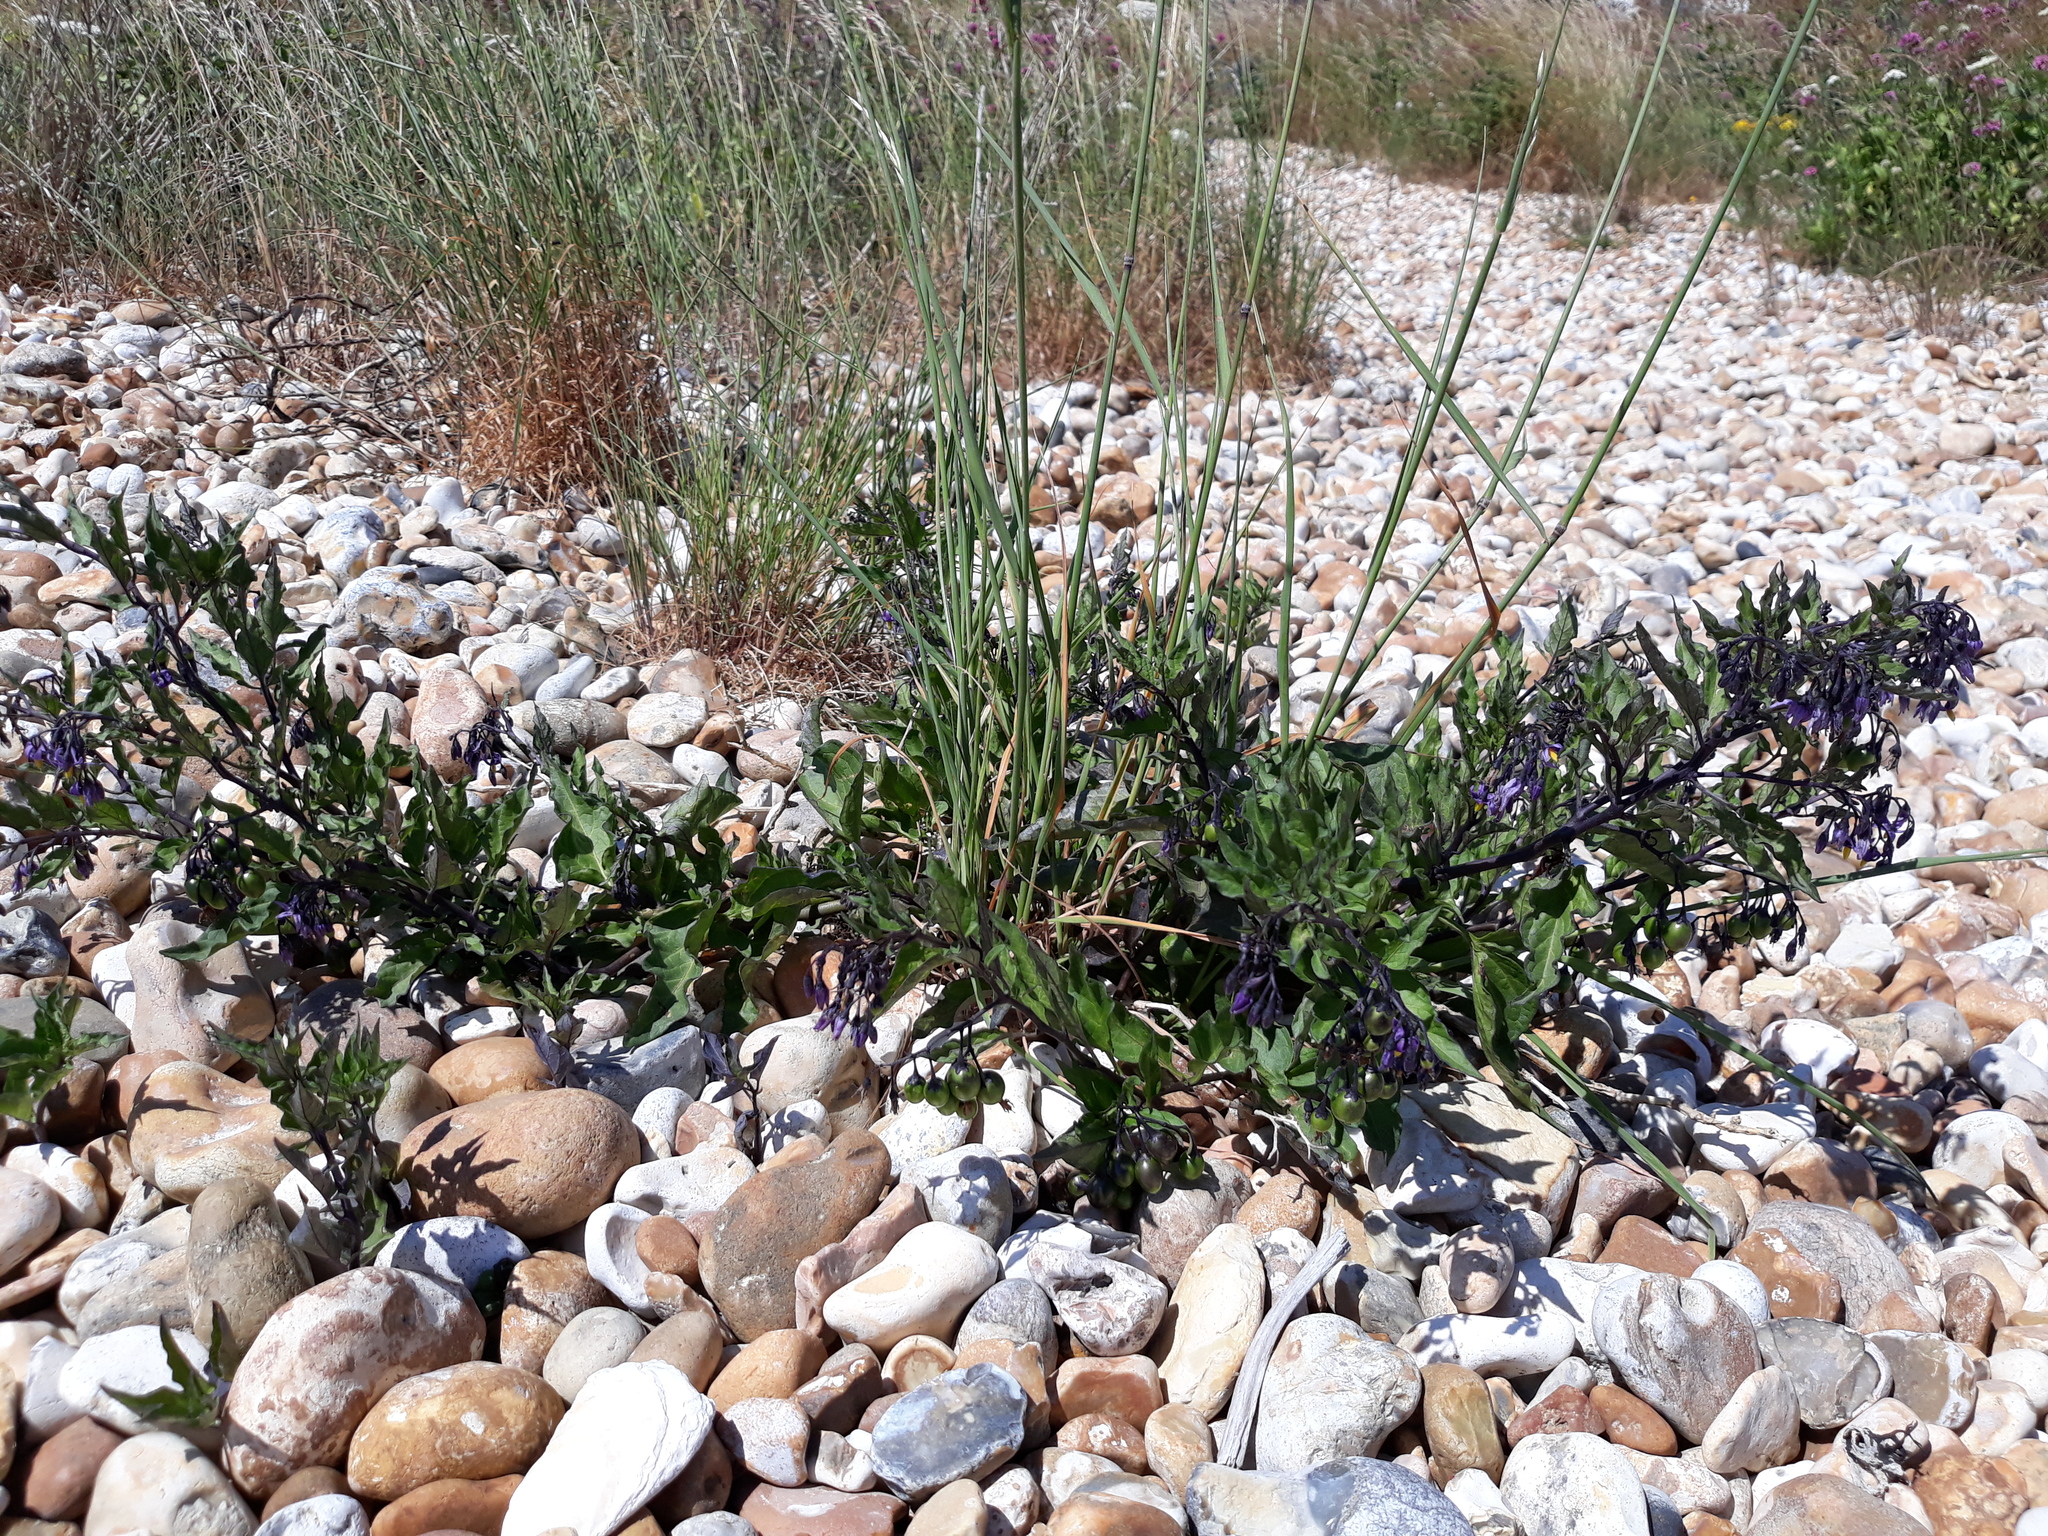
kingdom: Plantae
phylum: Tracheophyta
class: Magnoliopsida
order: Solanales
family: Solanaceae
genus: Solanum
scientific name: Solanum dulcamara
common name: Climbing nightshade
